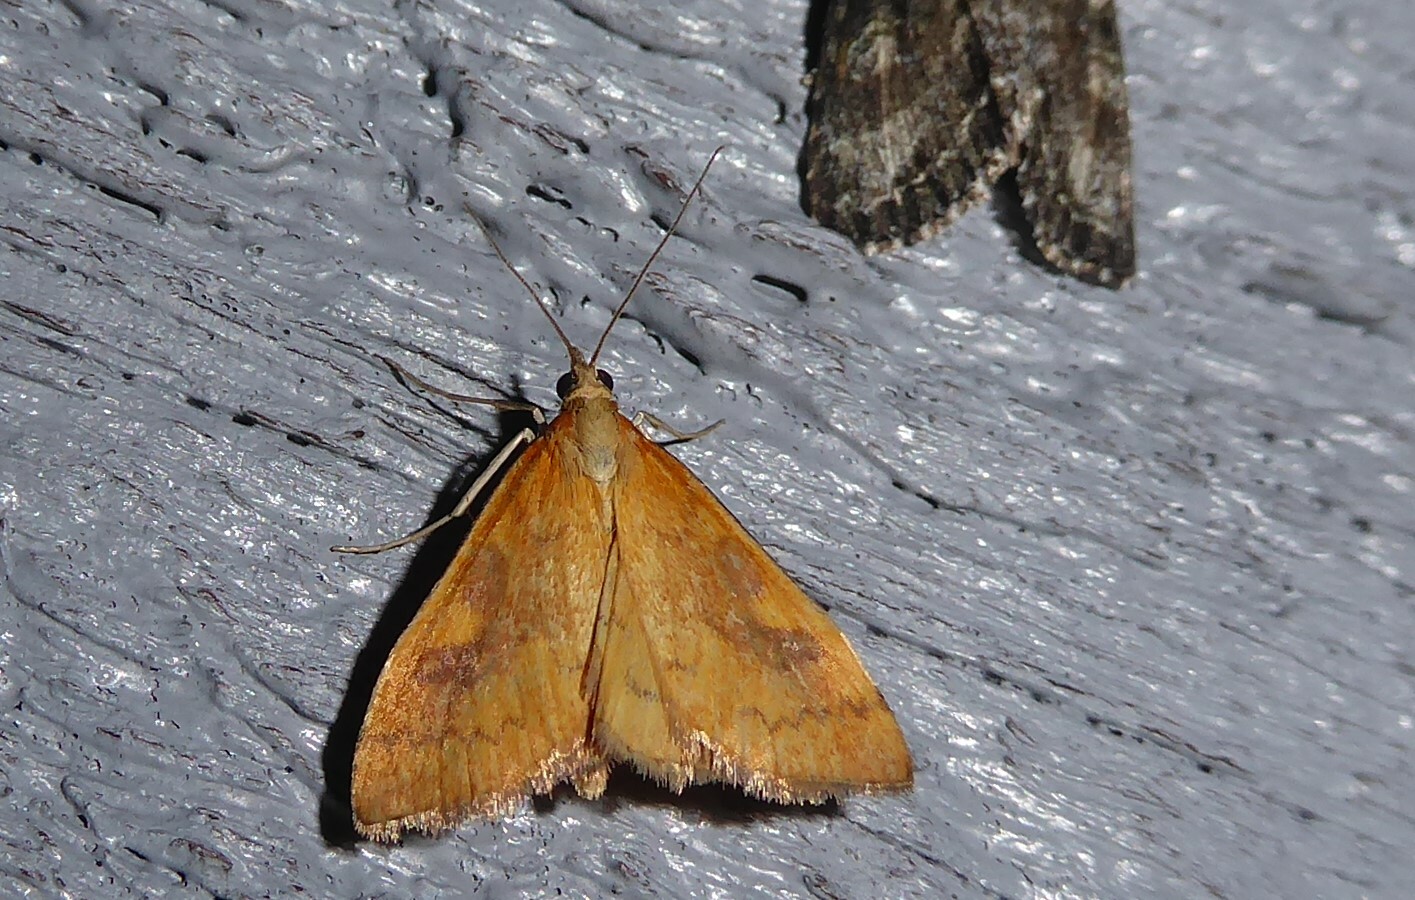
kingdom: Animalia
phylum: Arthropoda
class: Insecta
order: Lepidoptera
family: Crambidae
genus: Udea
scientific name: Udea Mnesictena flavidalis
